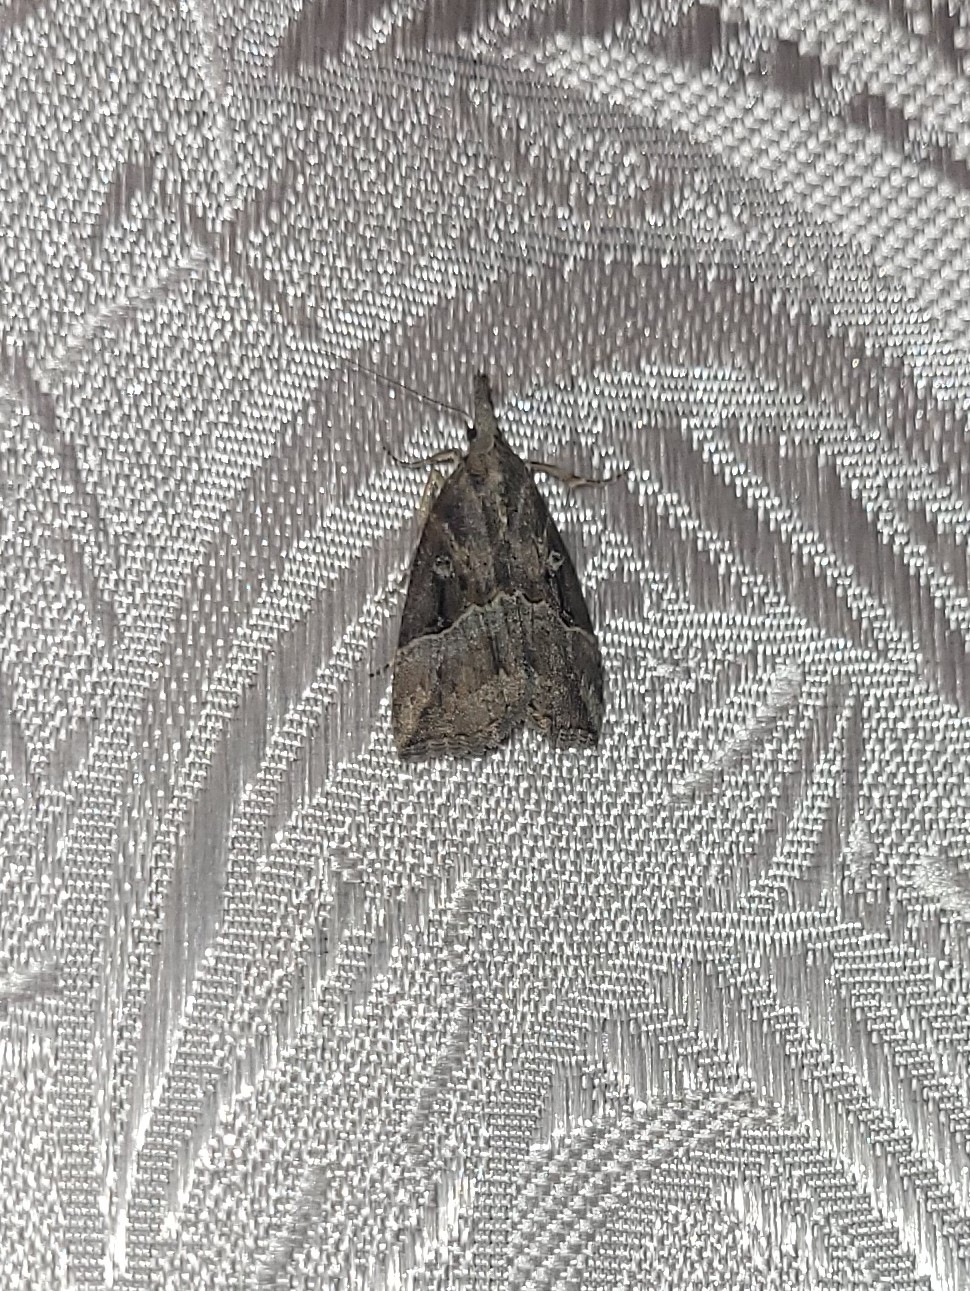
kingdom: Animalia
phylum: Arthropoda
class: Insecta
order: Lepidoptera
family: Erebidae
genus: Hypena
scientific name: Hypena rostralis
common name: Buttoned snout
